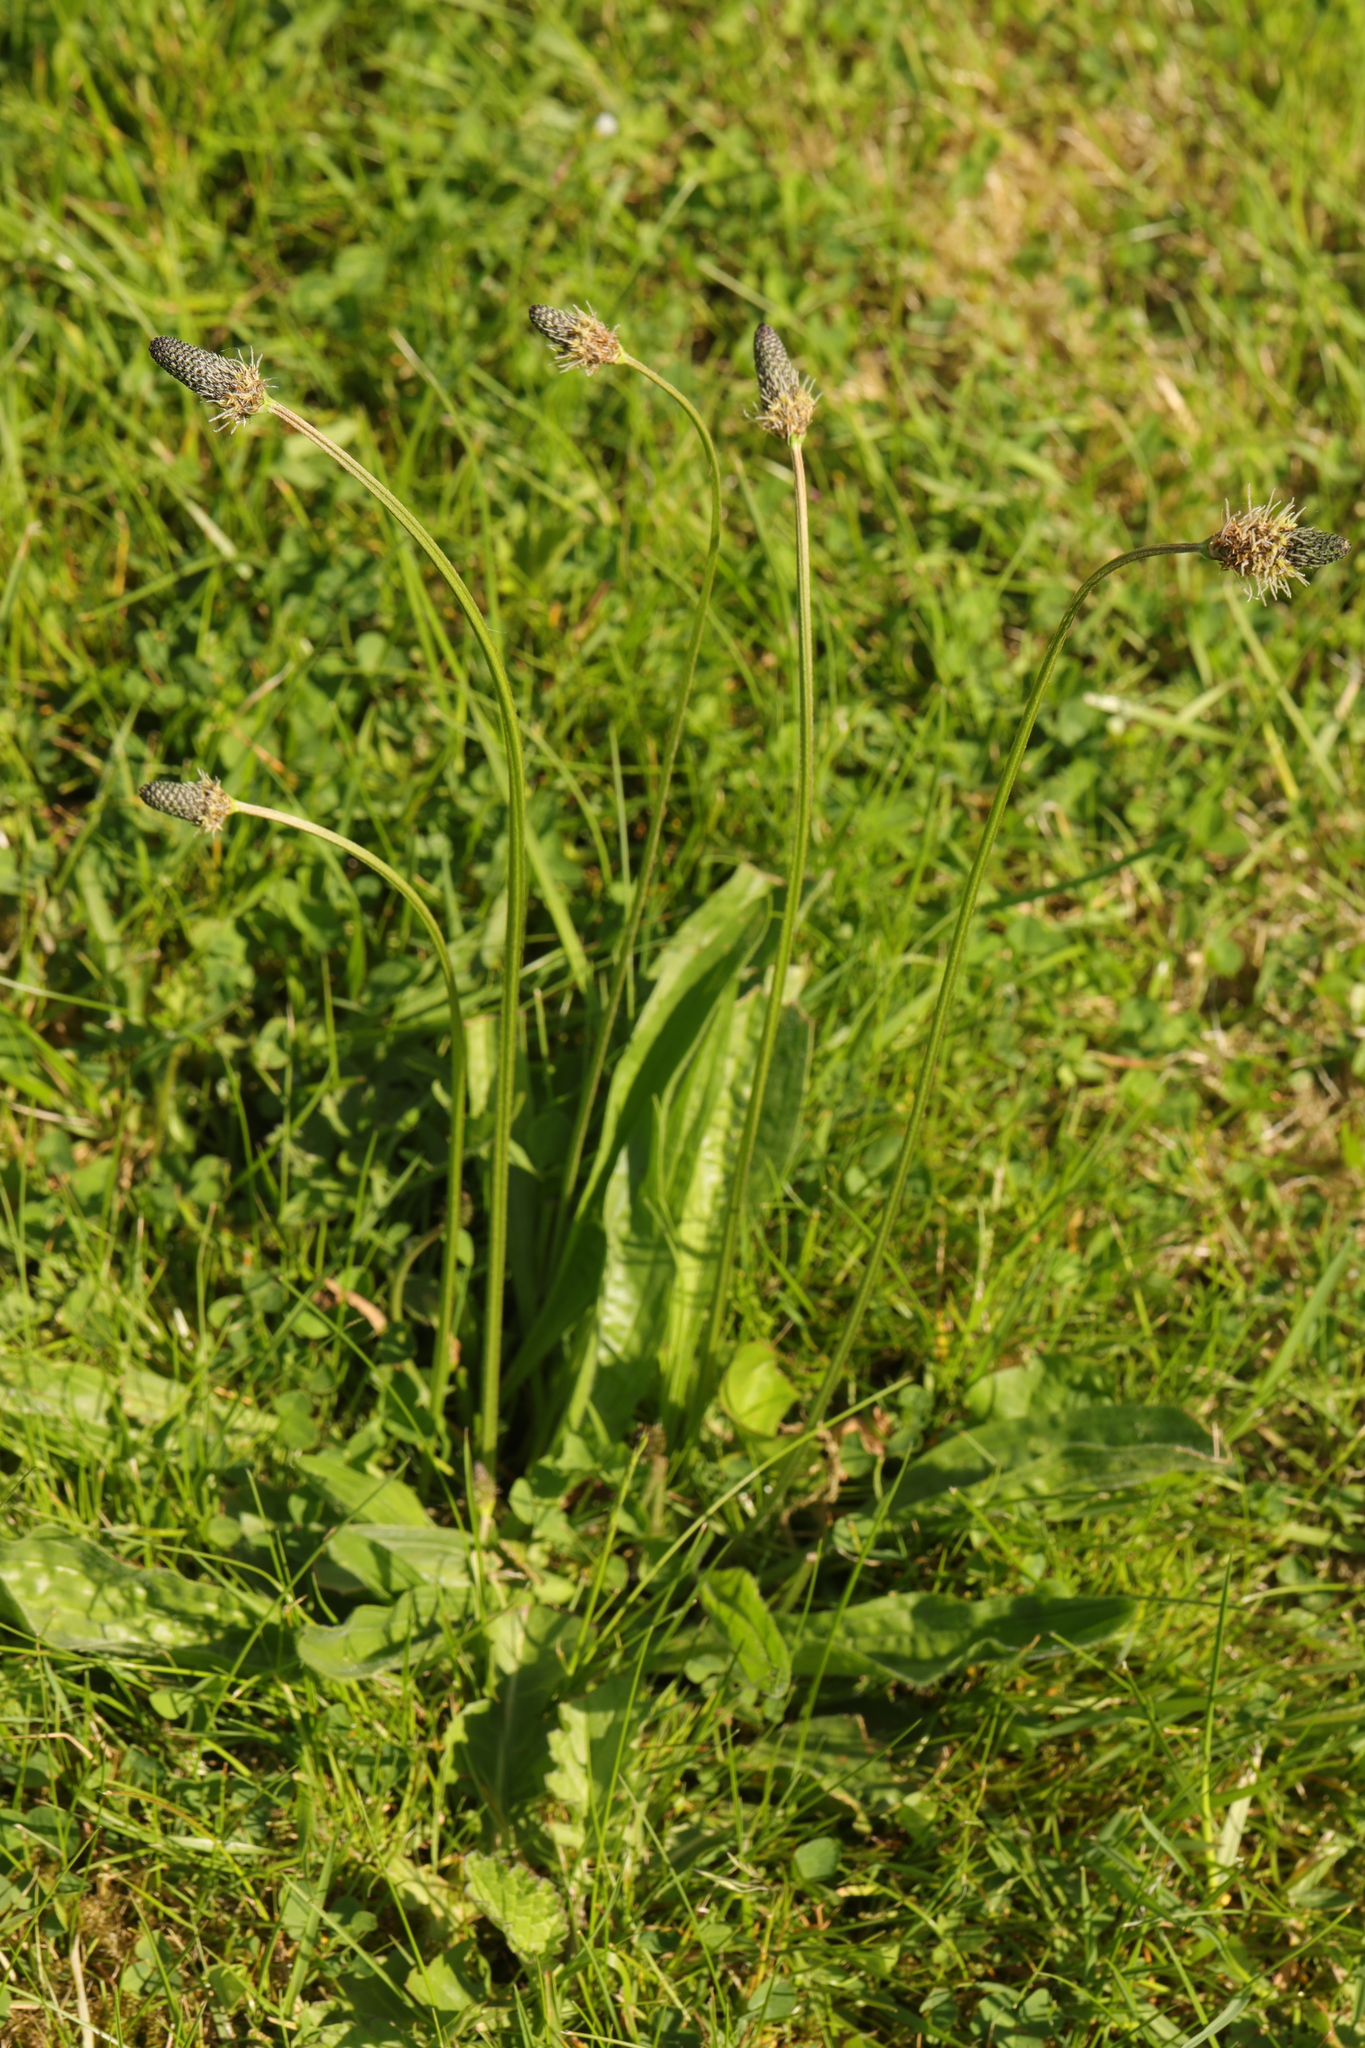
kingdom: Plantae
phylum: Tracheophyta
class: Magnoliopsida
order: Lamiales
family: Plantaginaceae
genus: Plantago
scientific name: Plantago lanceolata
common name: Ribwort plantain
